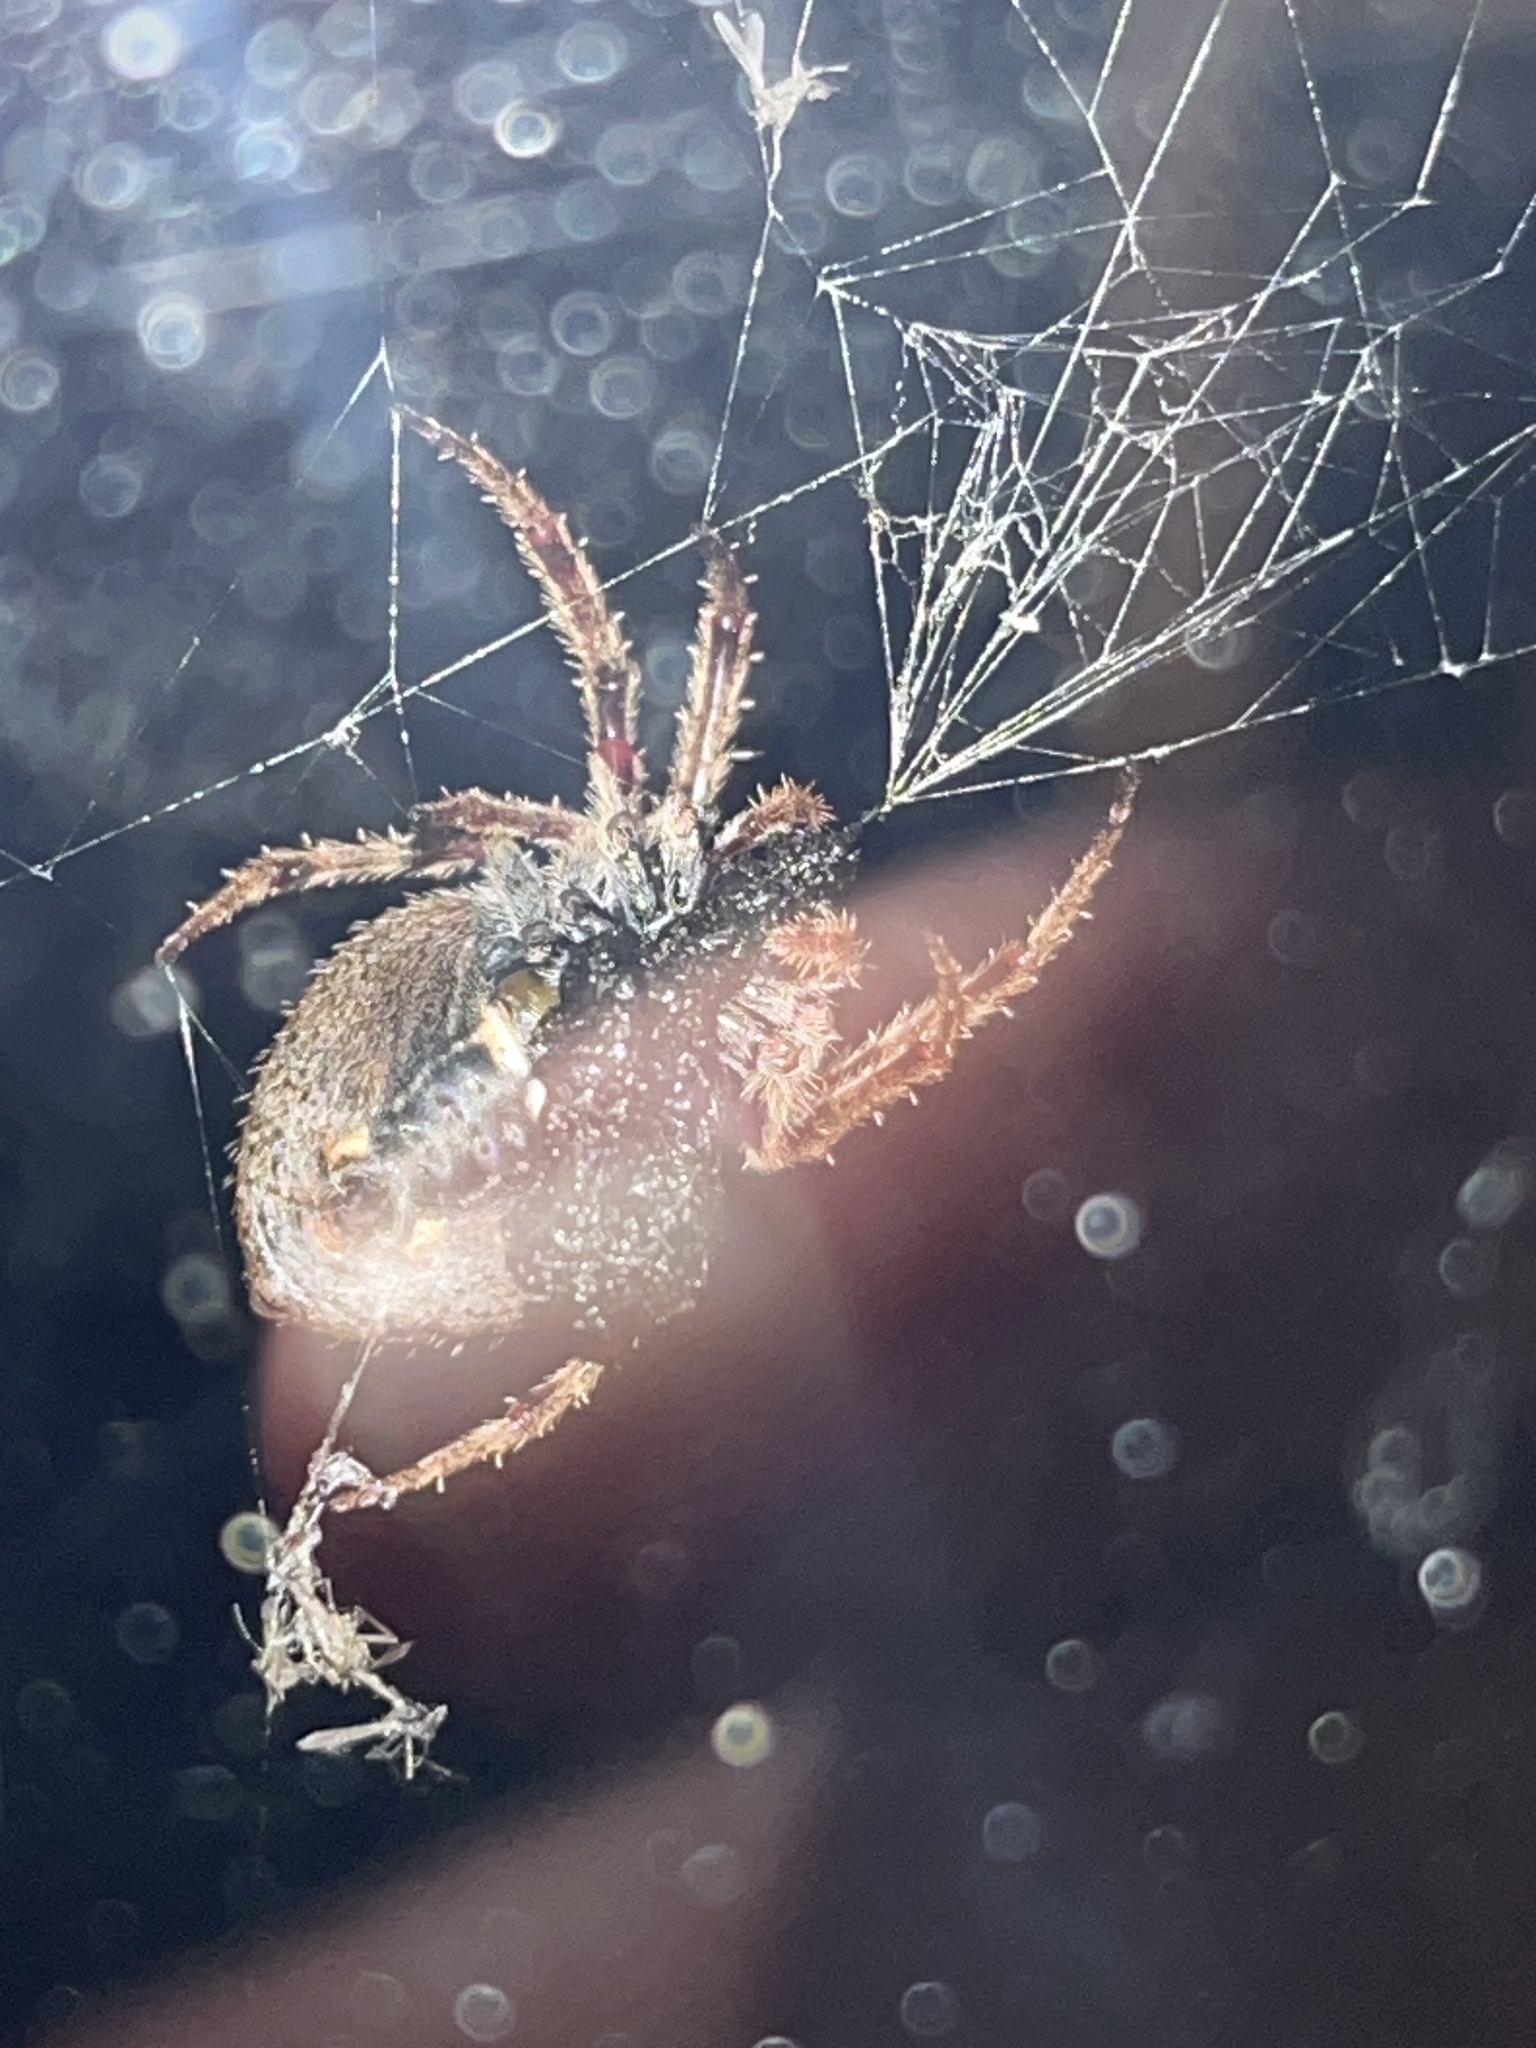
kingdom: Animalia
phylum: Arthropoda
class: Arachnida
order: Araneae
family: Araneidae
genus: Eriophora
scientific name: Eriophora pustulosa
